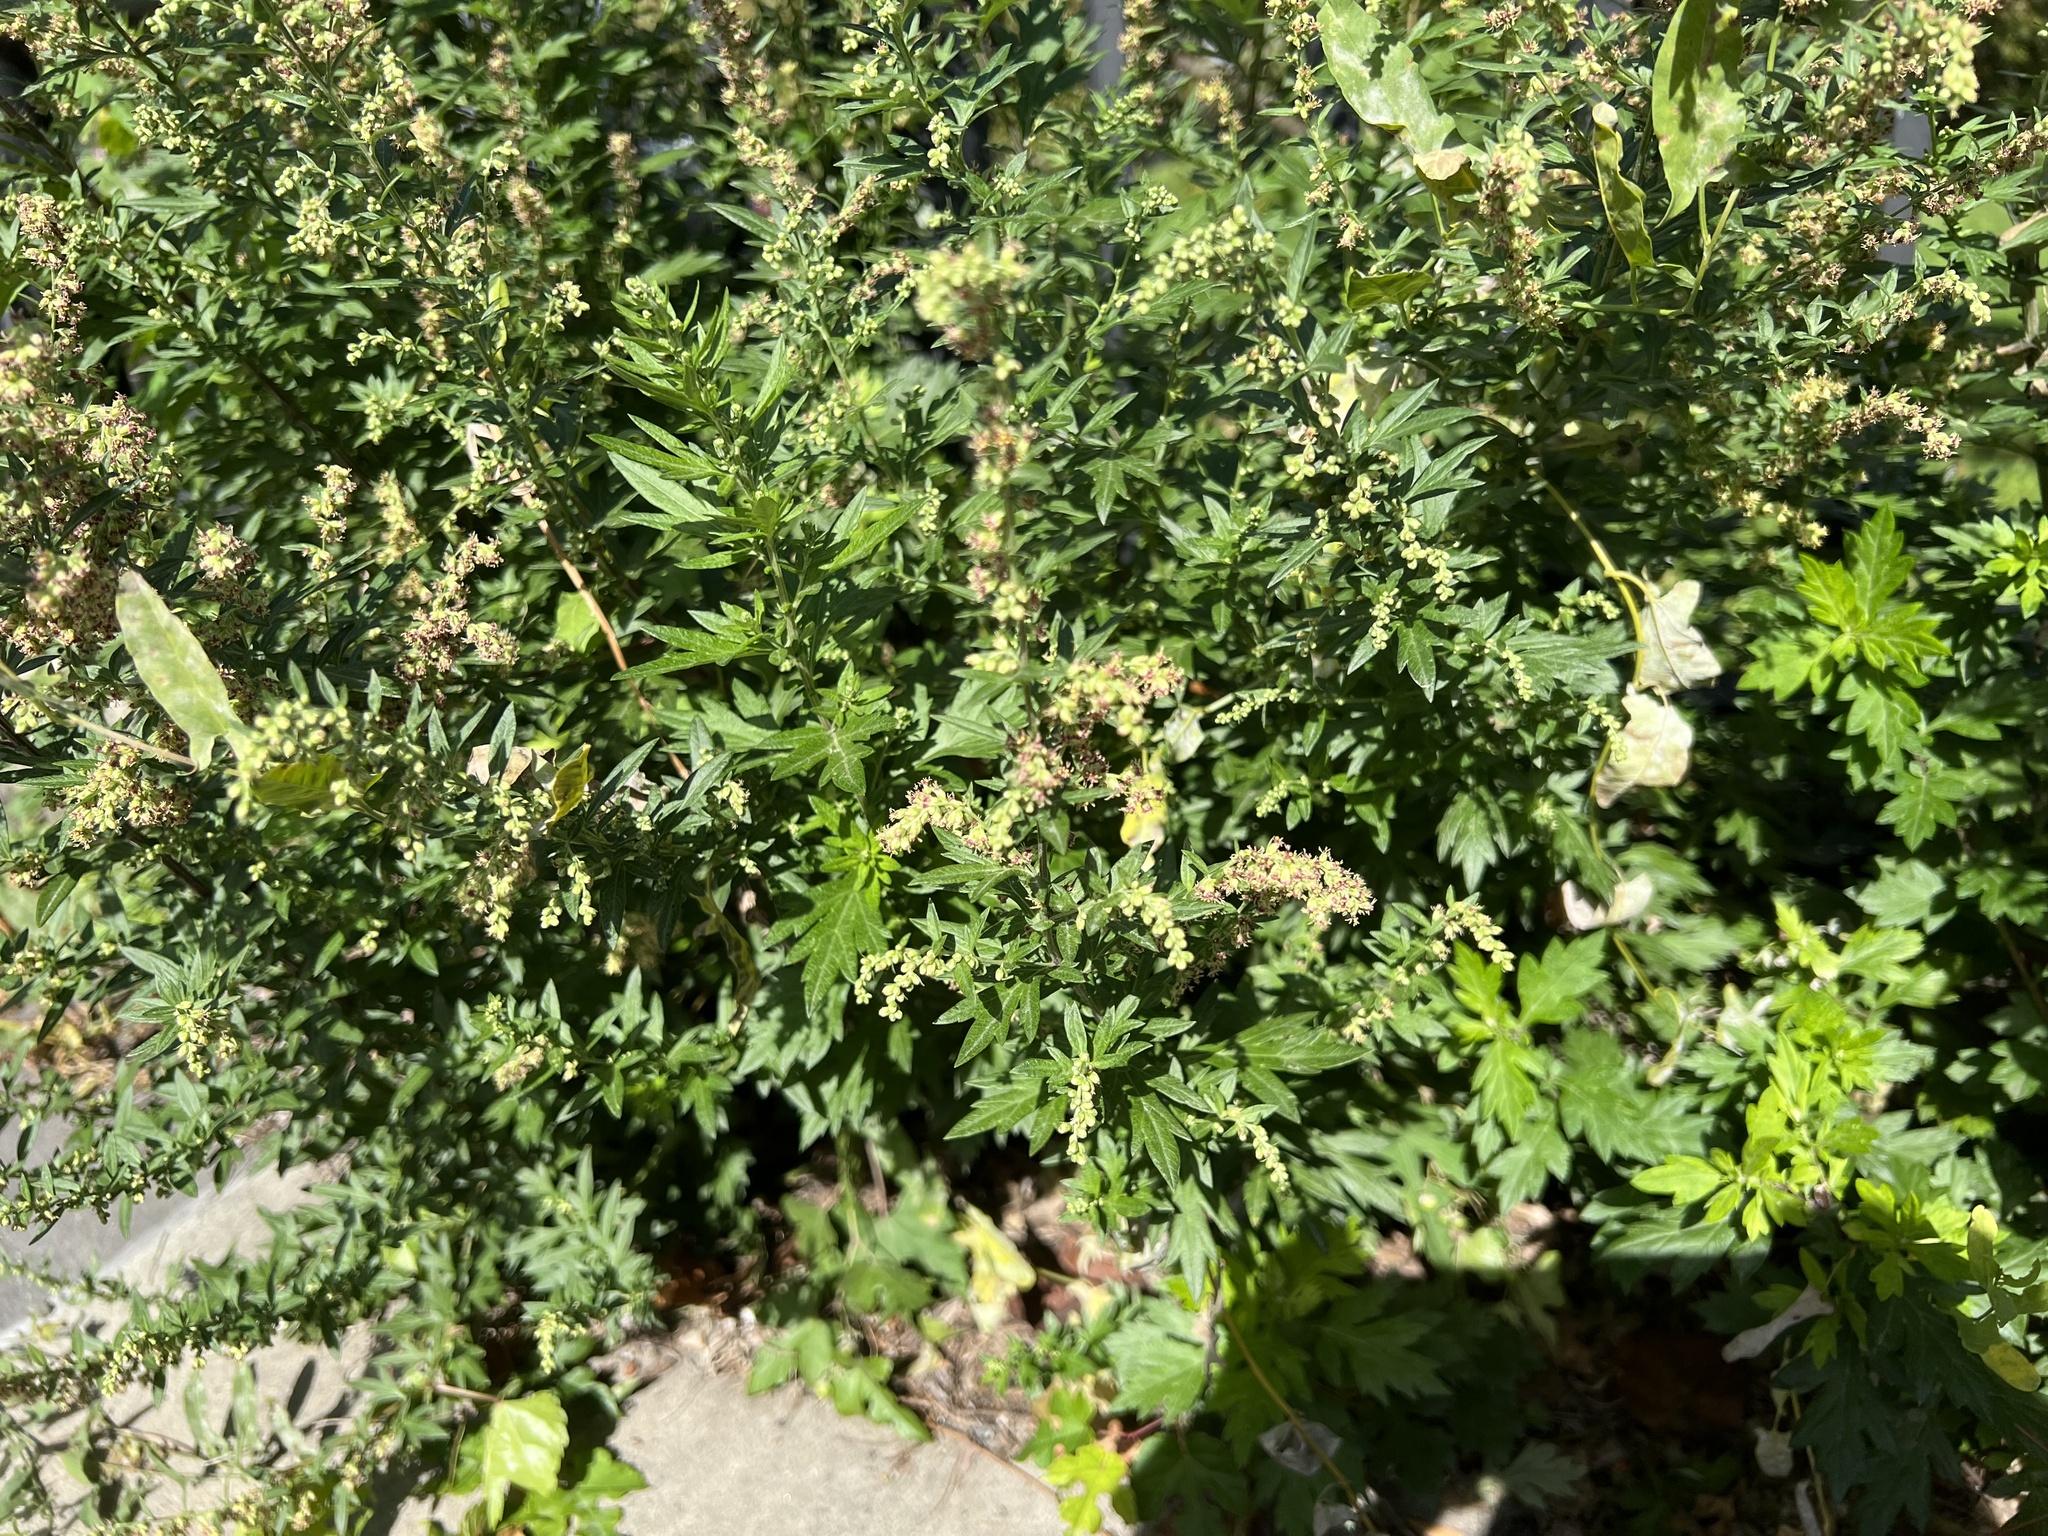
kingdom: Plantae
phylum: Tracheophyta
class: Magnoliopsida
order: Asterales
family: Asteraceae
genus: Artemisia
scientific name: Artemisia vulgaris
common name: Mugwort
